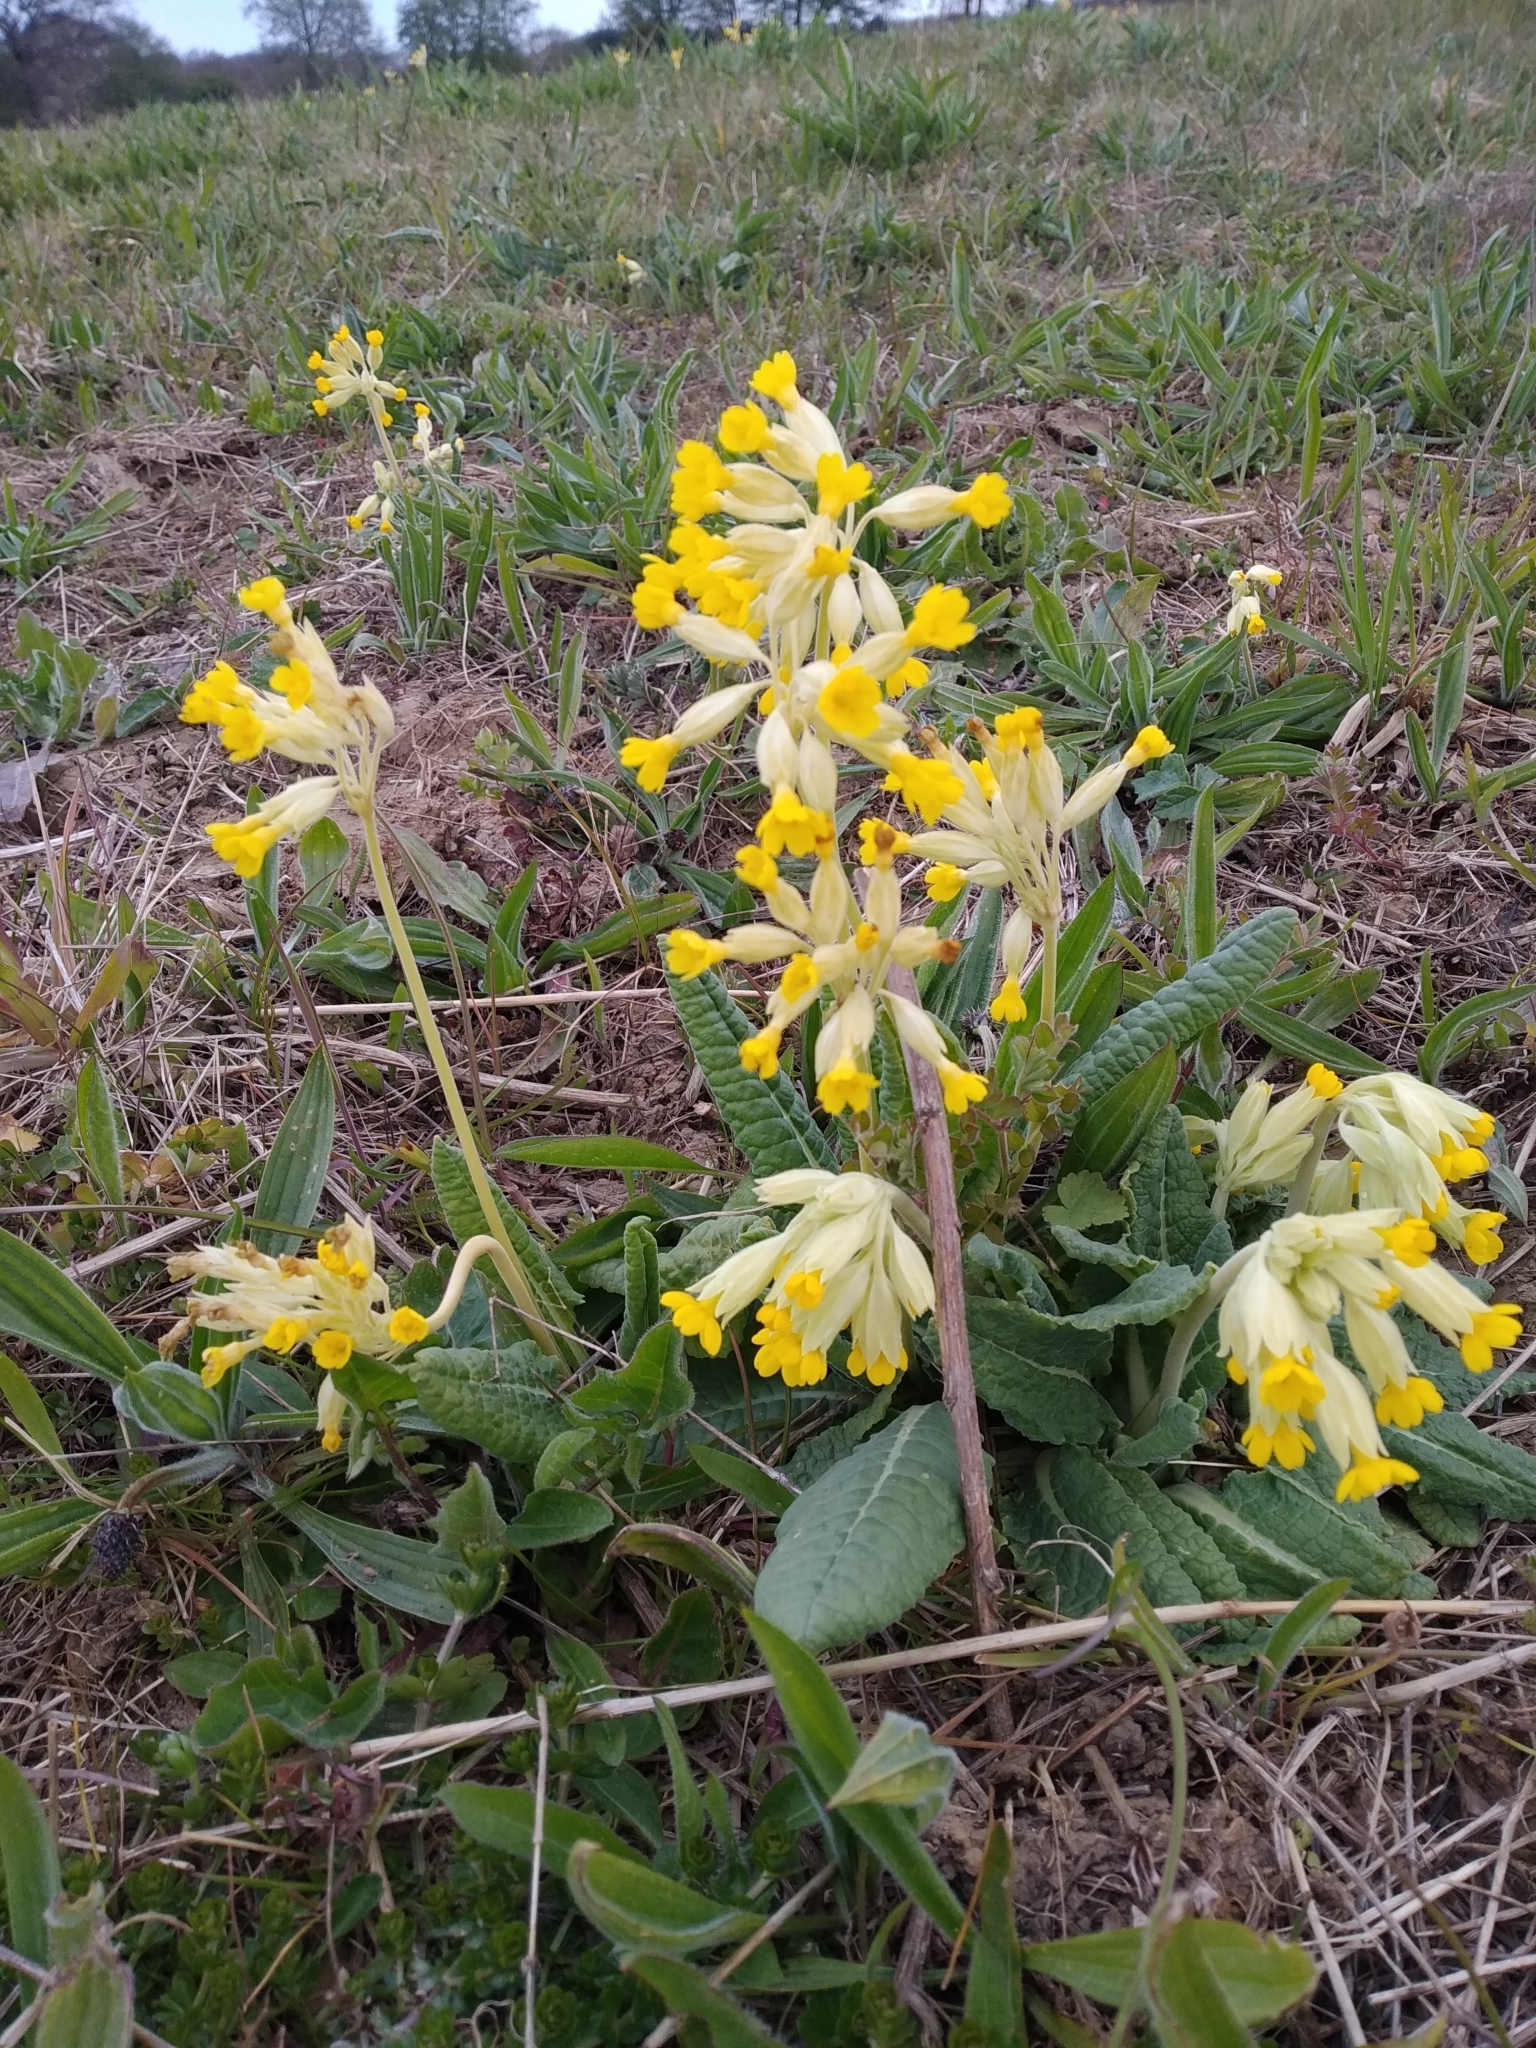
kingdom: Plantae
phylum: Tracheophyta
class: Magnoliopsida
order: Ericales
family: Primulaceae
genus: Primula
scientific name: Primula veris
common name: Cowslip
